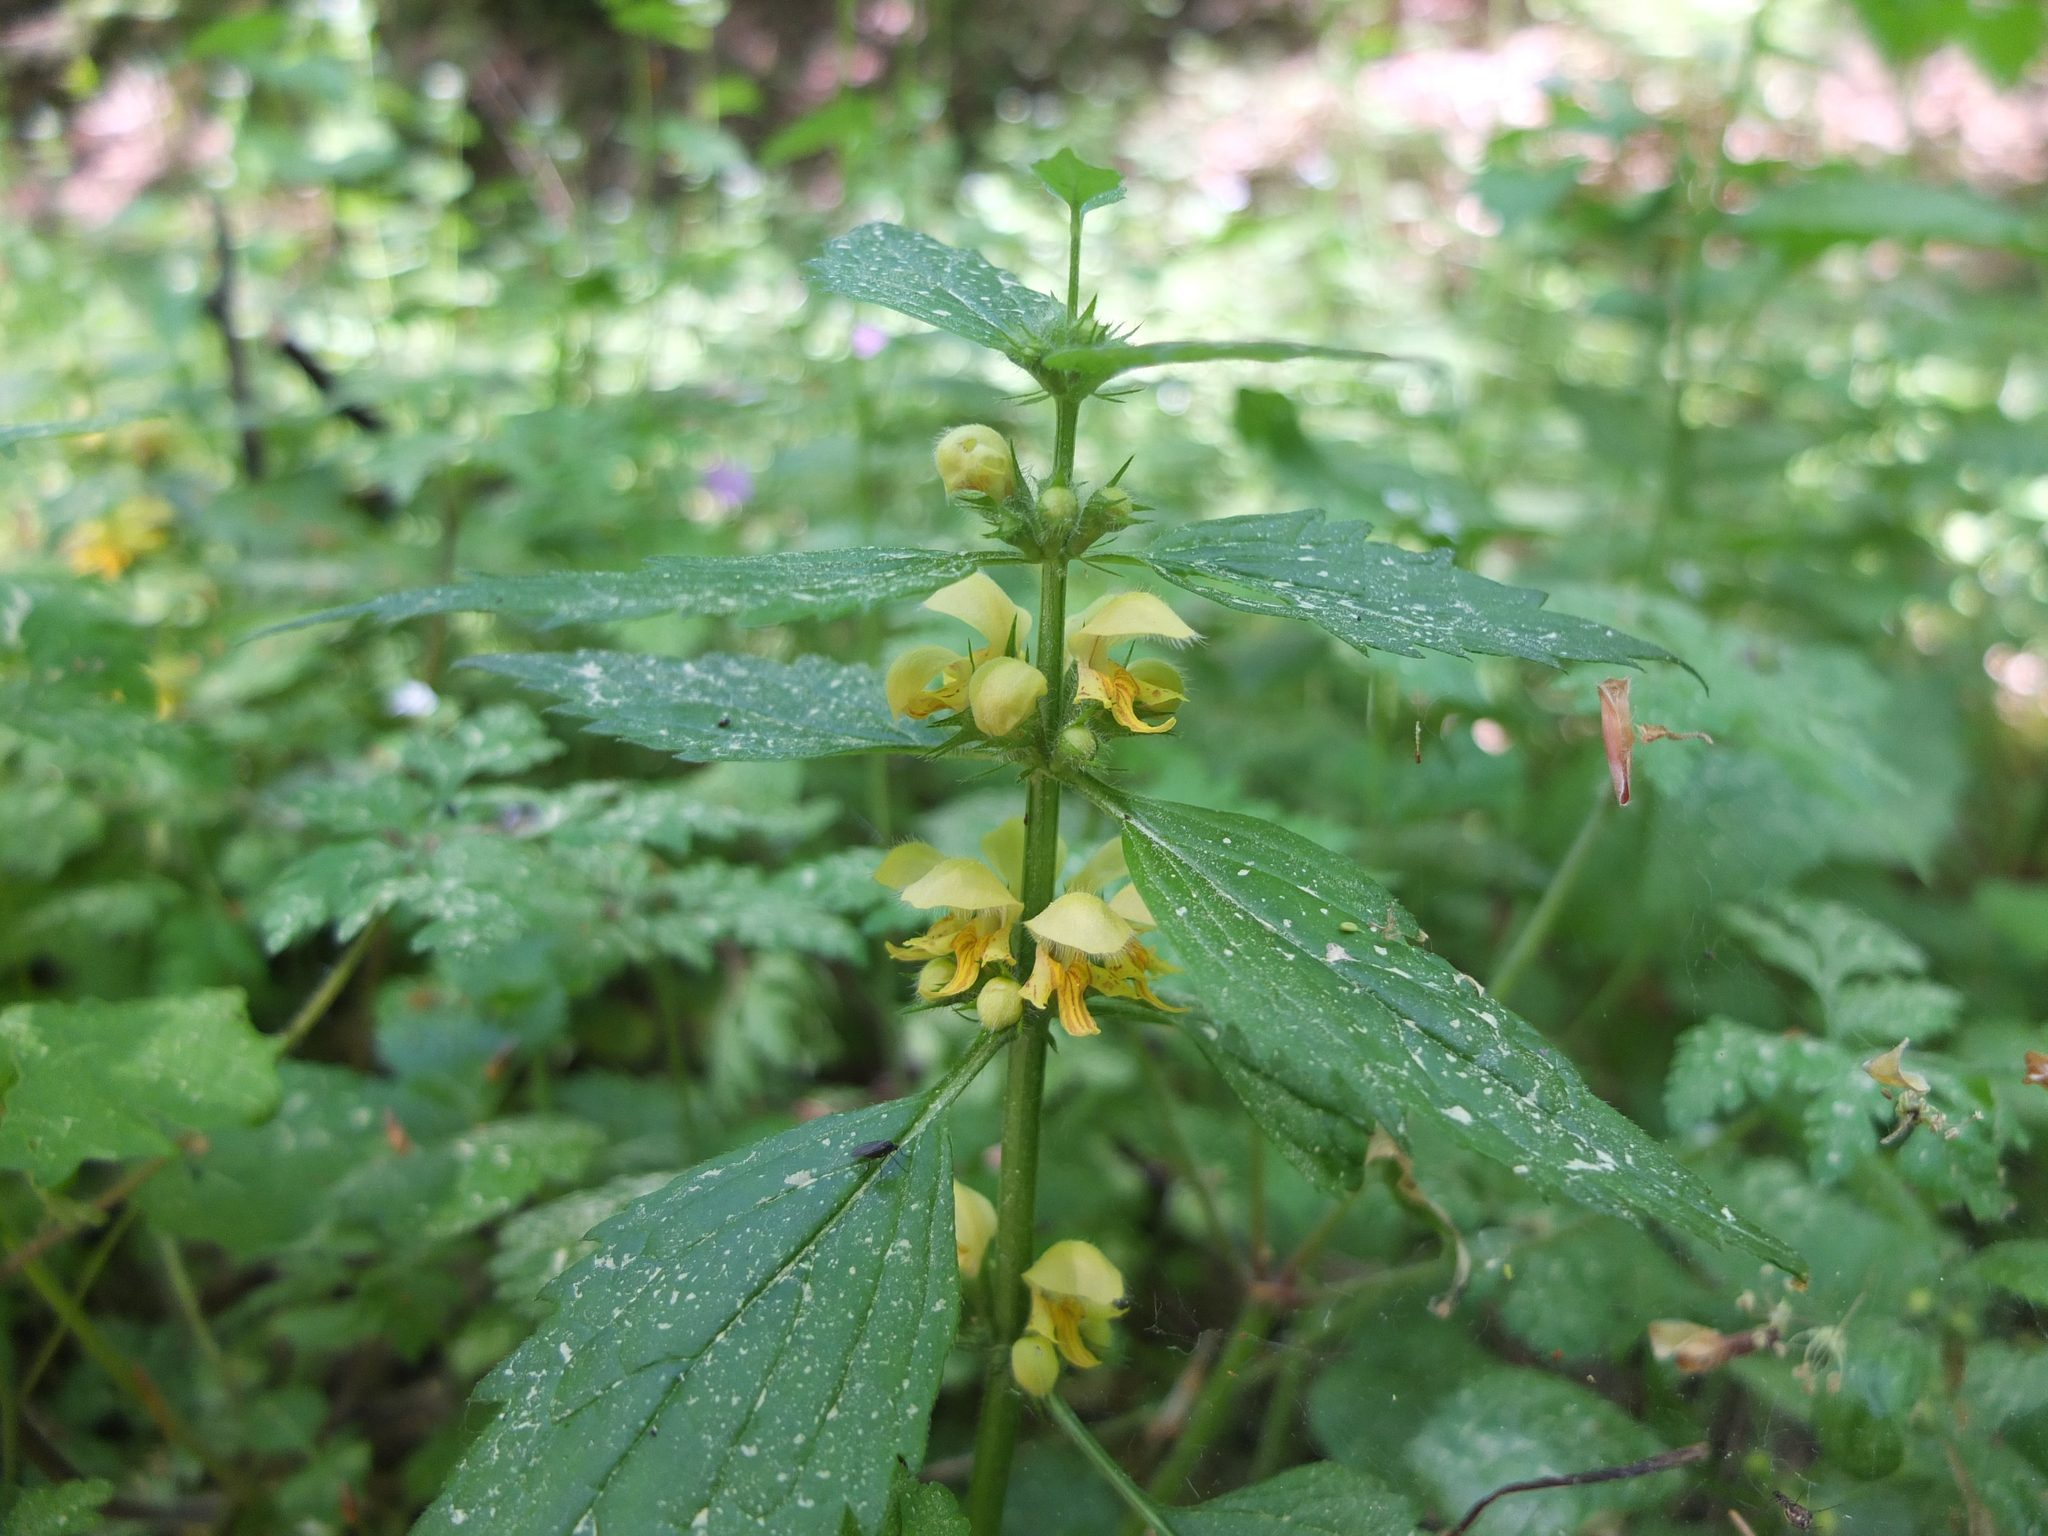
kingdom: Plantae
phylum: Tracheophyta
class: Magnoliopsida
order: Lamiales
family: Lamiaceae
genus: Lamium
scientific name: Lamium galeobdolon
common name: Yellow archangel
